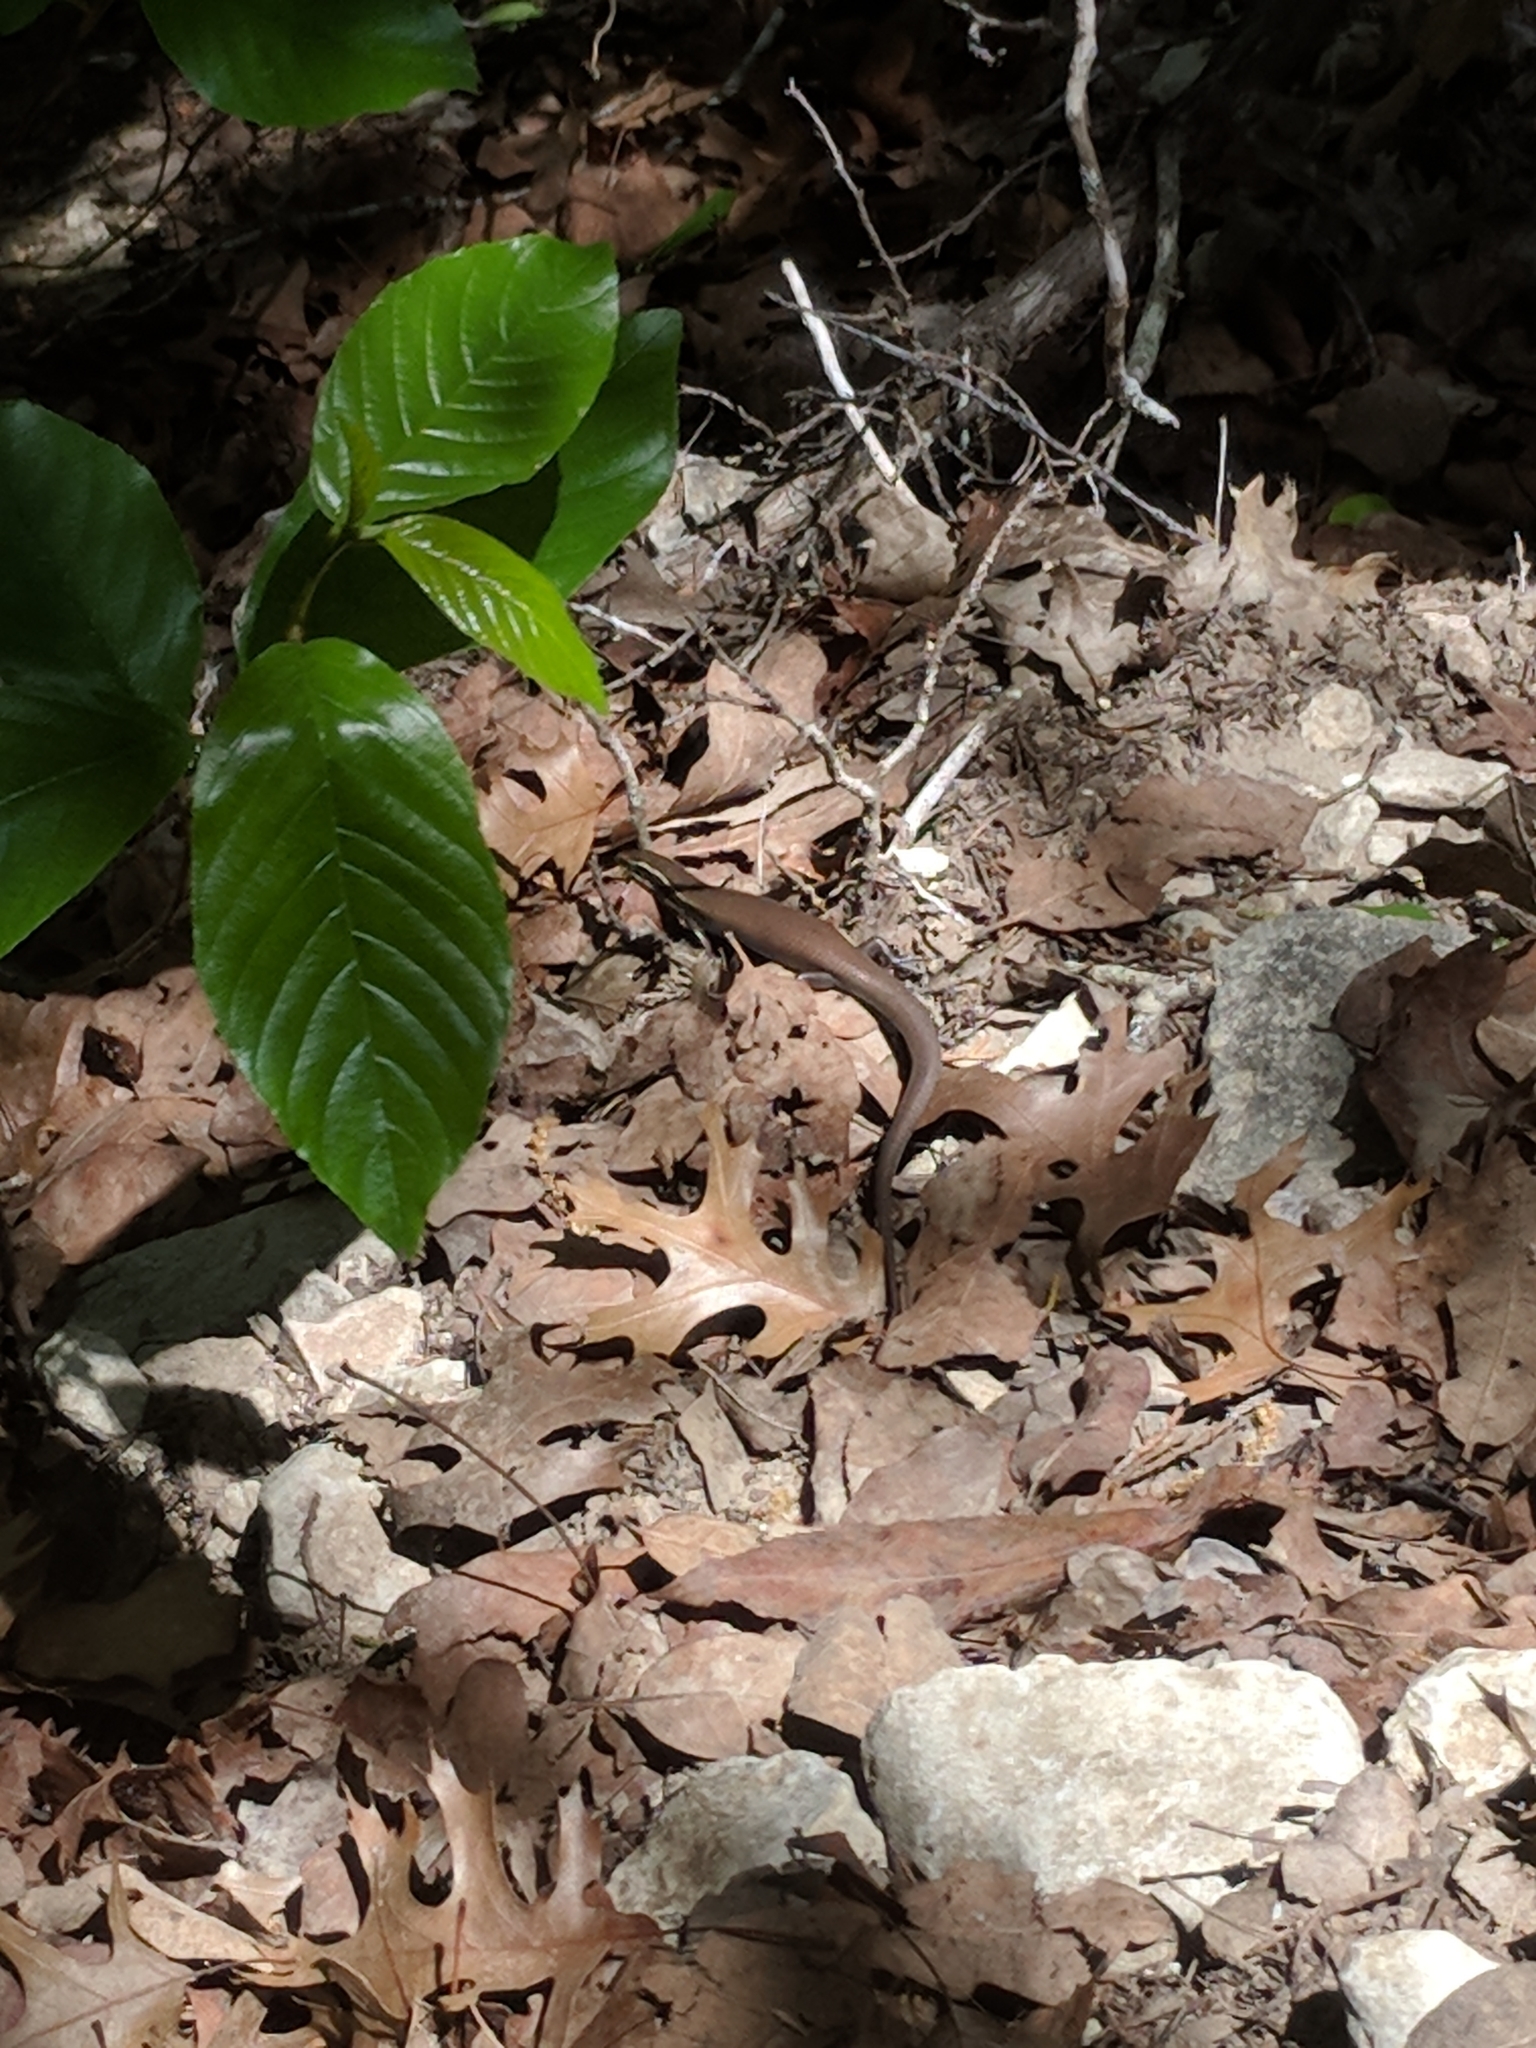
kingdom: Animalia
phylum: Chordata
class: Squamata
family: Scincidae
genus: Plestiodon
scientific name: Plestiodon tetragrammus
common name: Four-lined skink
